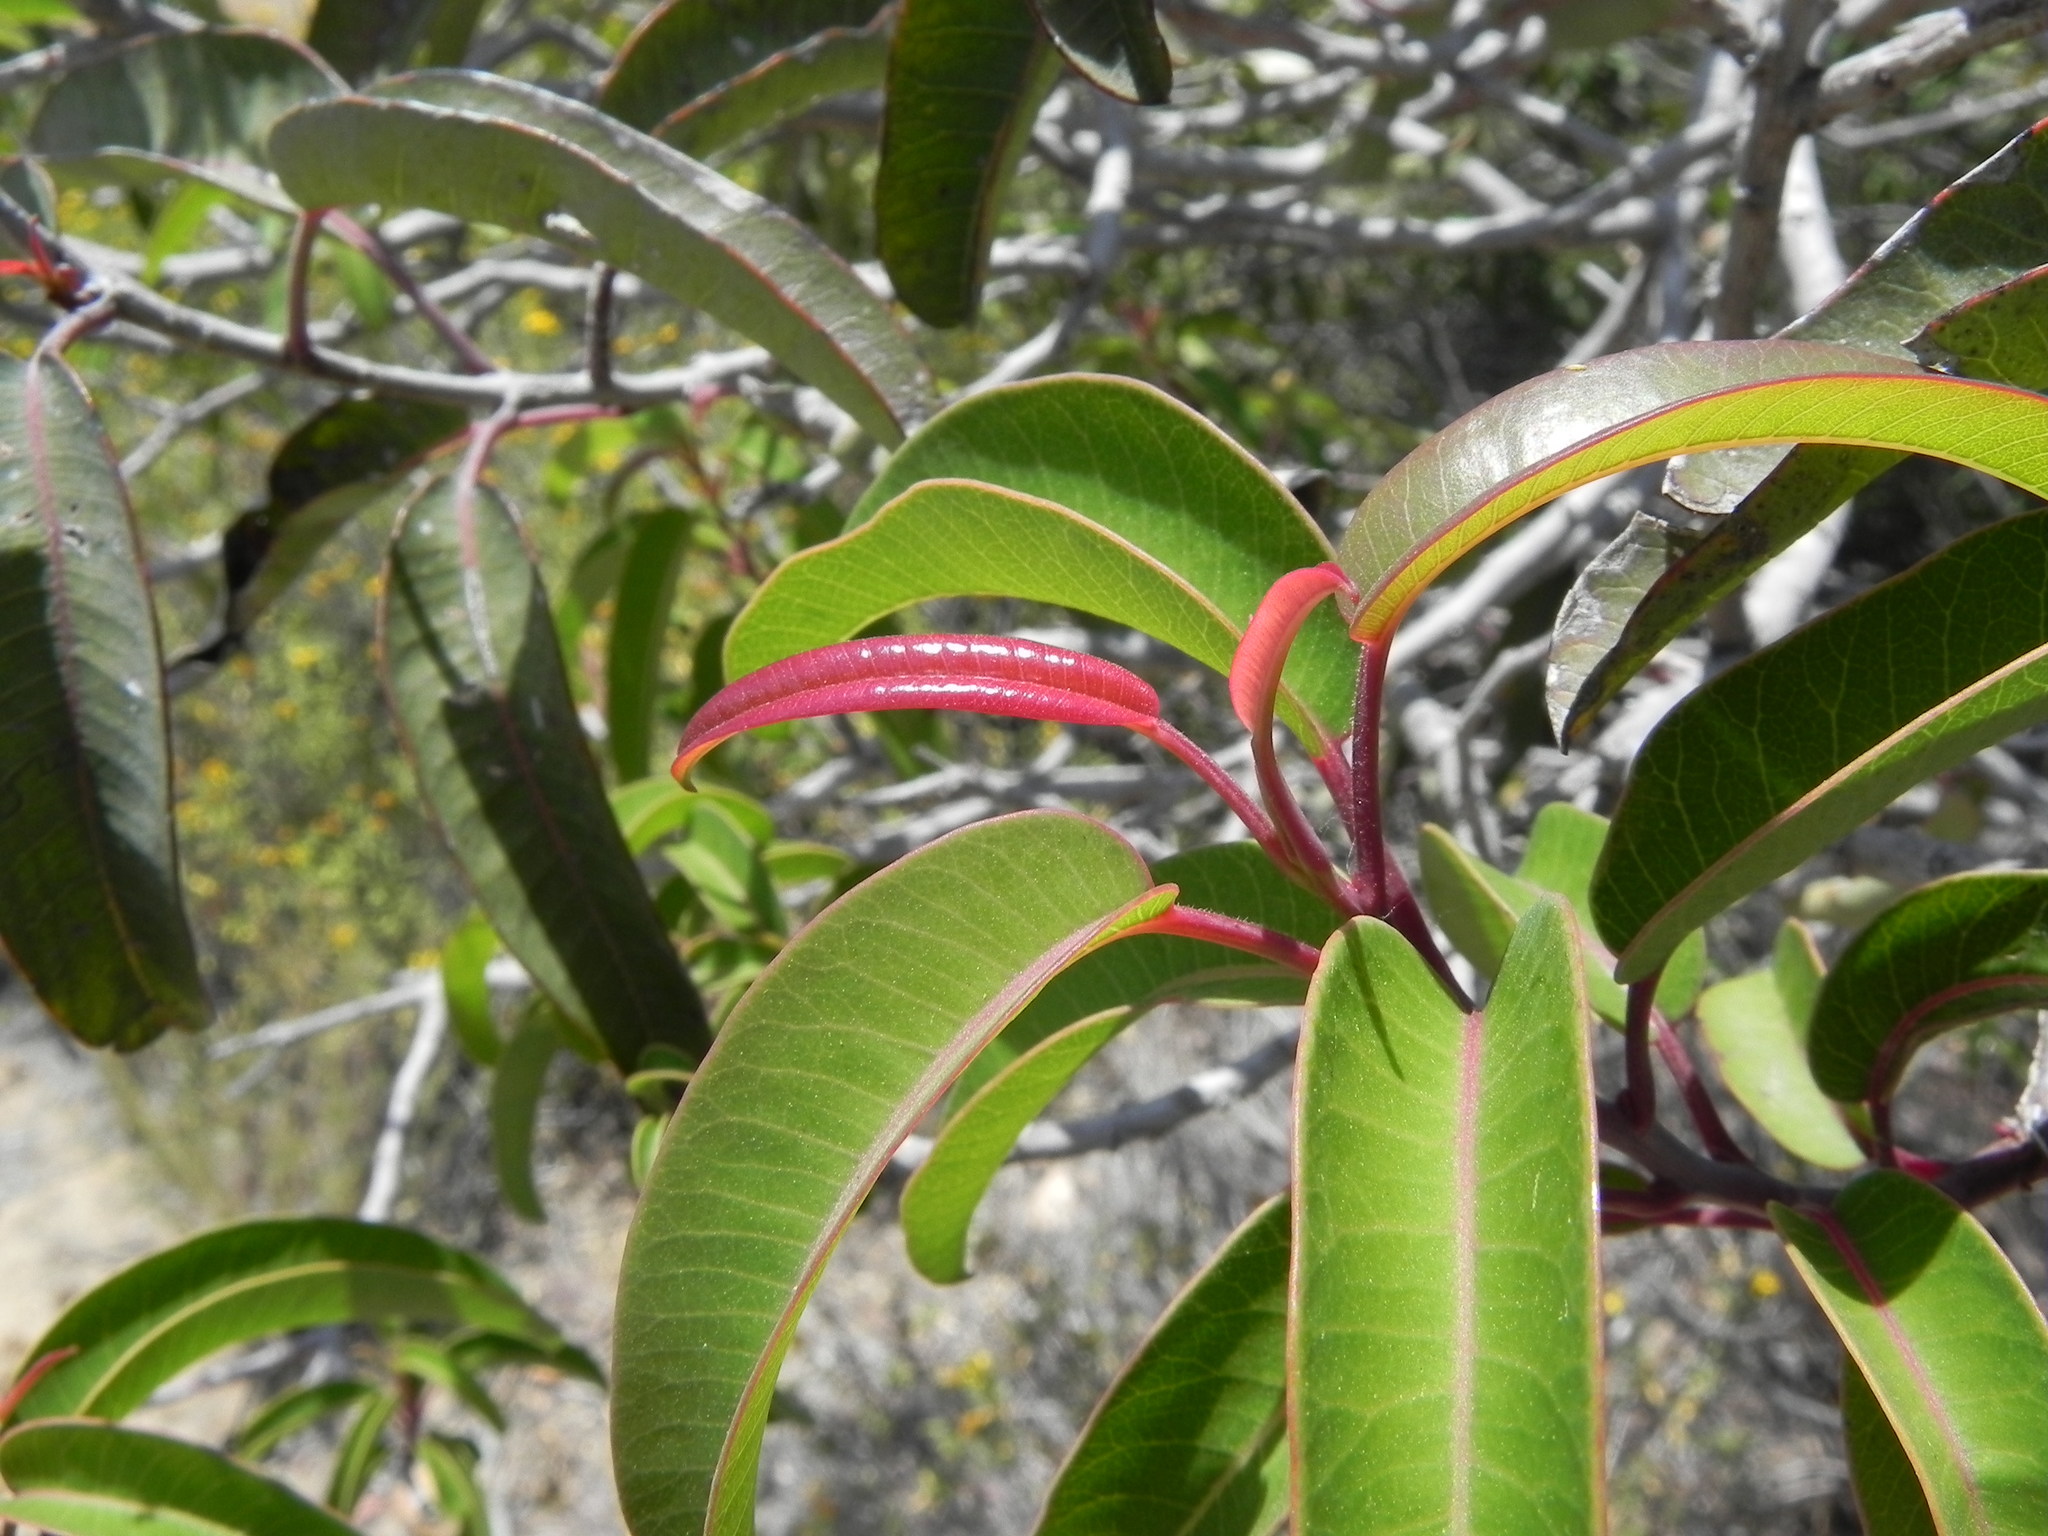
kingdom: Plantae
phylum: Tracheophyta
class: Magnoliopsida
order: Sapindales
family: Anacardiaceae
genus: Malosma
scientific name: Malosma laurina
